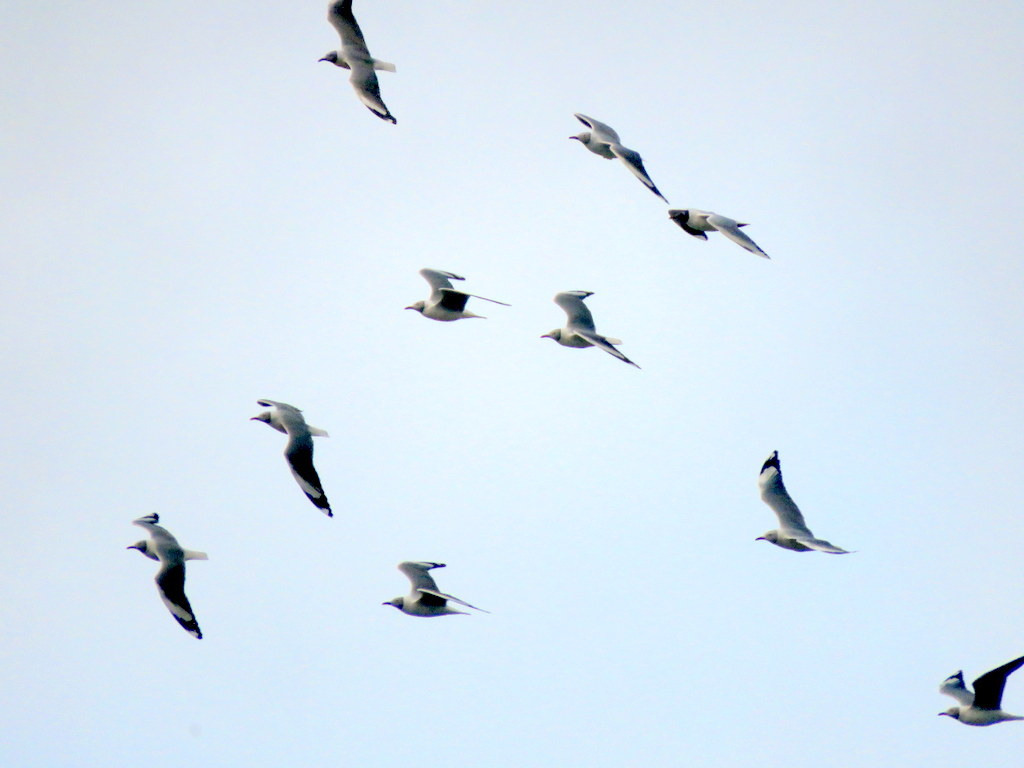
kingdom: Animalia
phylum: Chordata
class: Aves
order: Charadriiformes
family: Laridae
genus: Chroicocephalus
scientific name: Chroicocephalus cirrocephalus
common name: Grey-headed gull
